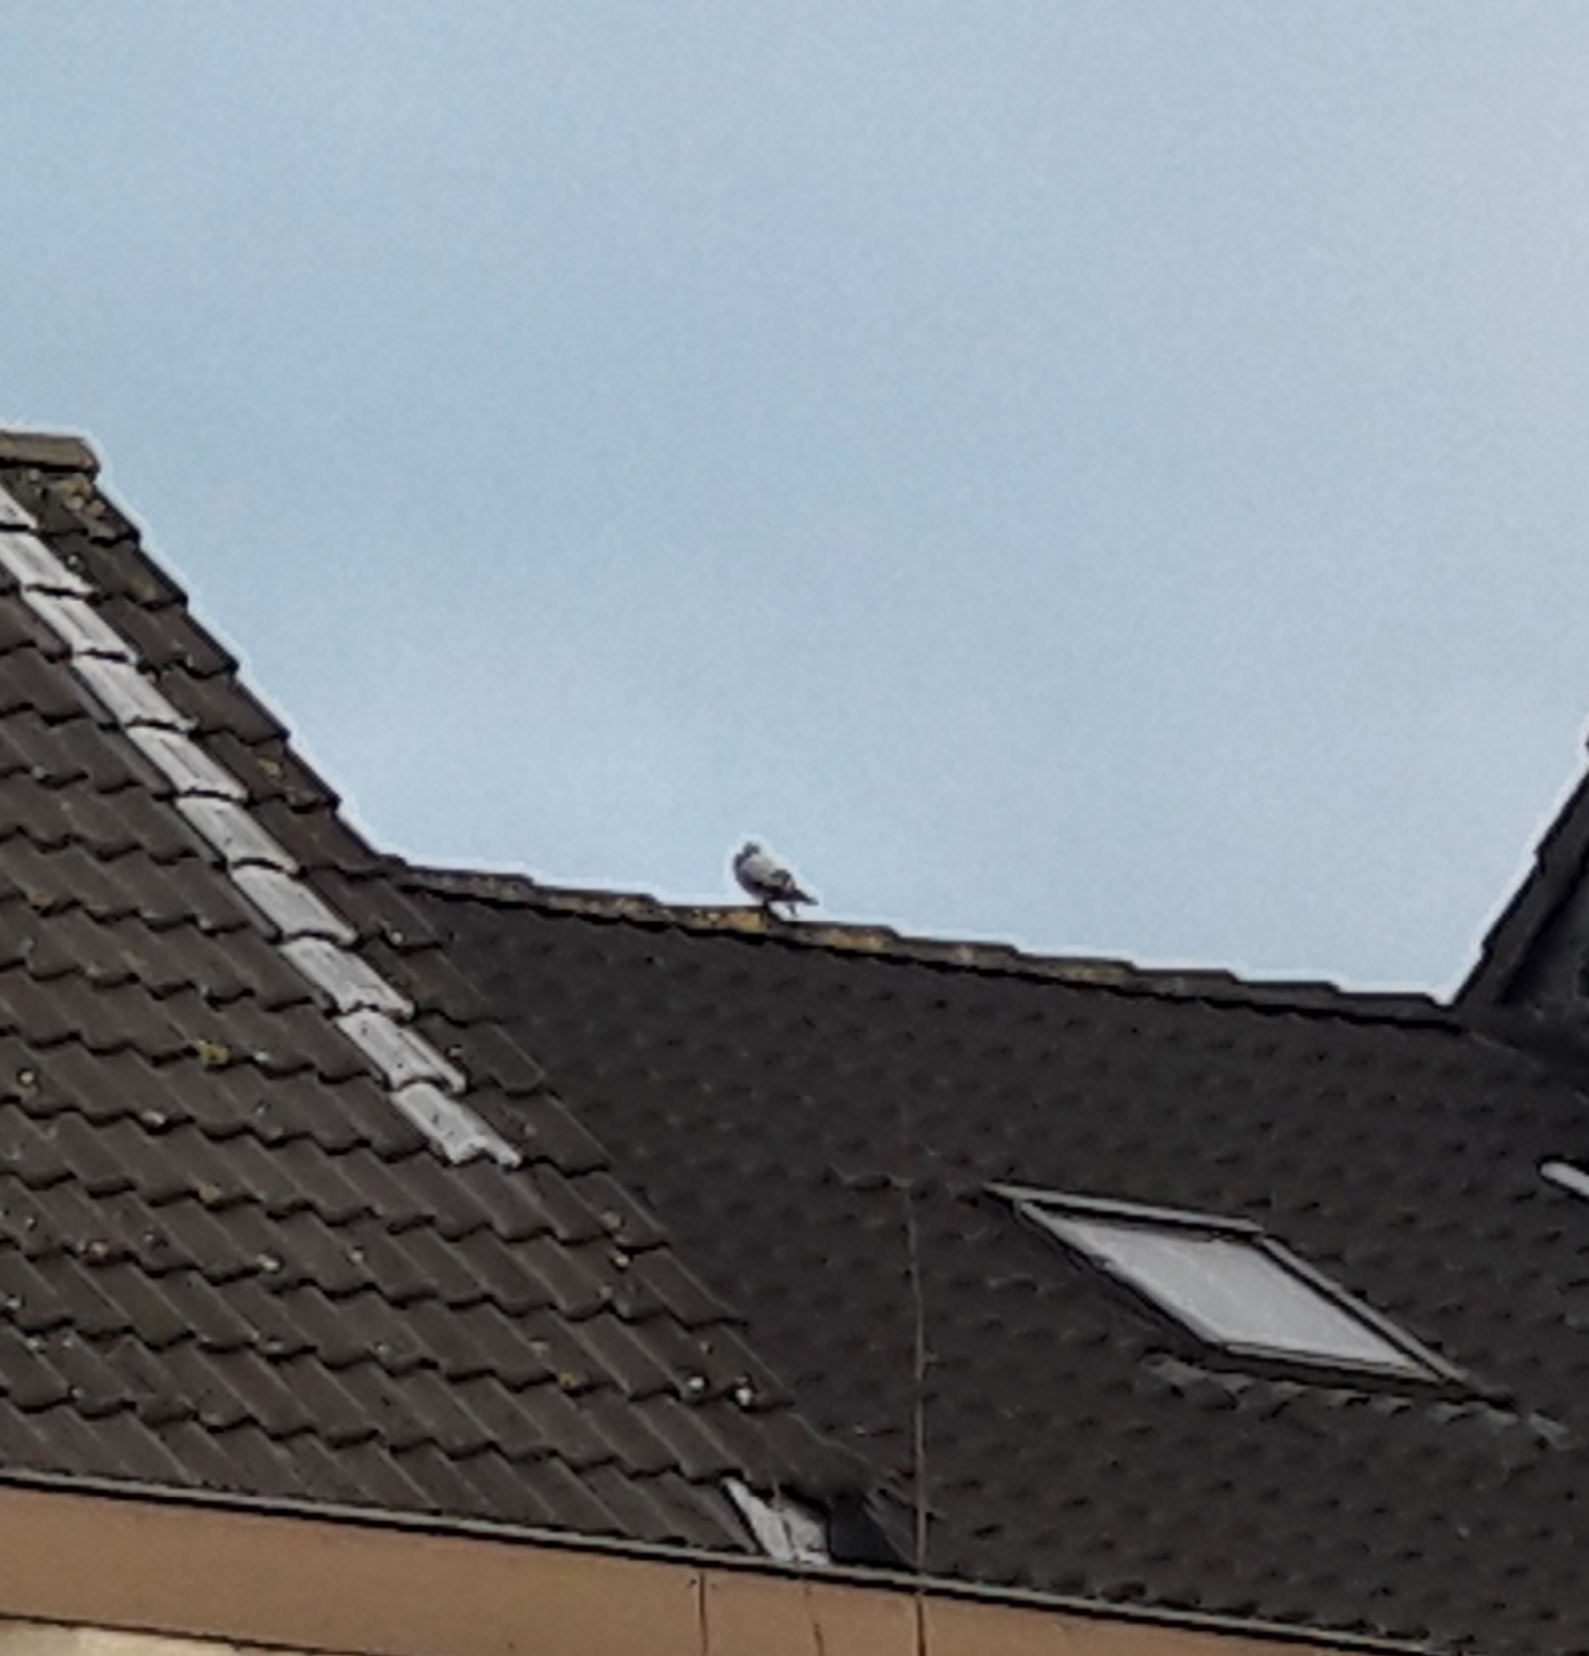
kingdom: Animalia
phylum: Chordata
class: Aves
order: Columbiformes
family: Columbidae
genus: Columba
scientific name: Columba livia
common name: Rock pigeon
